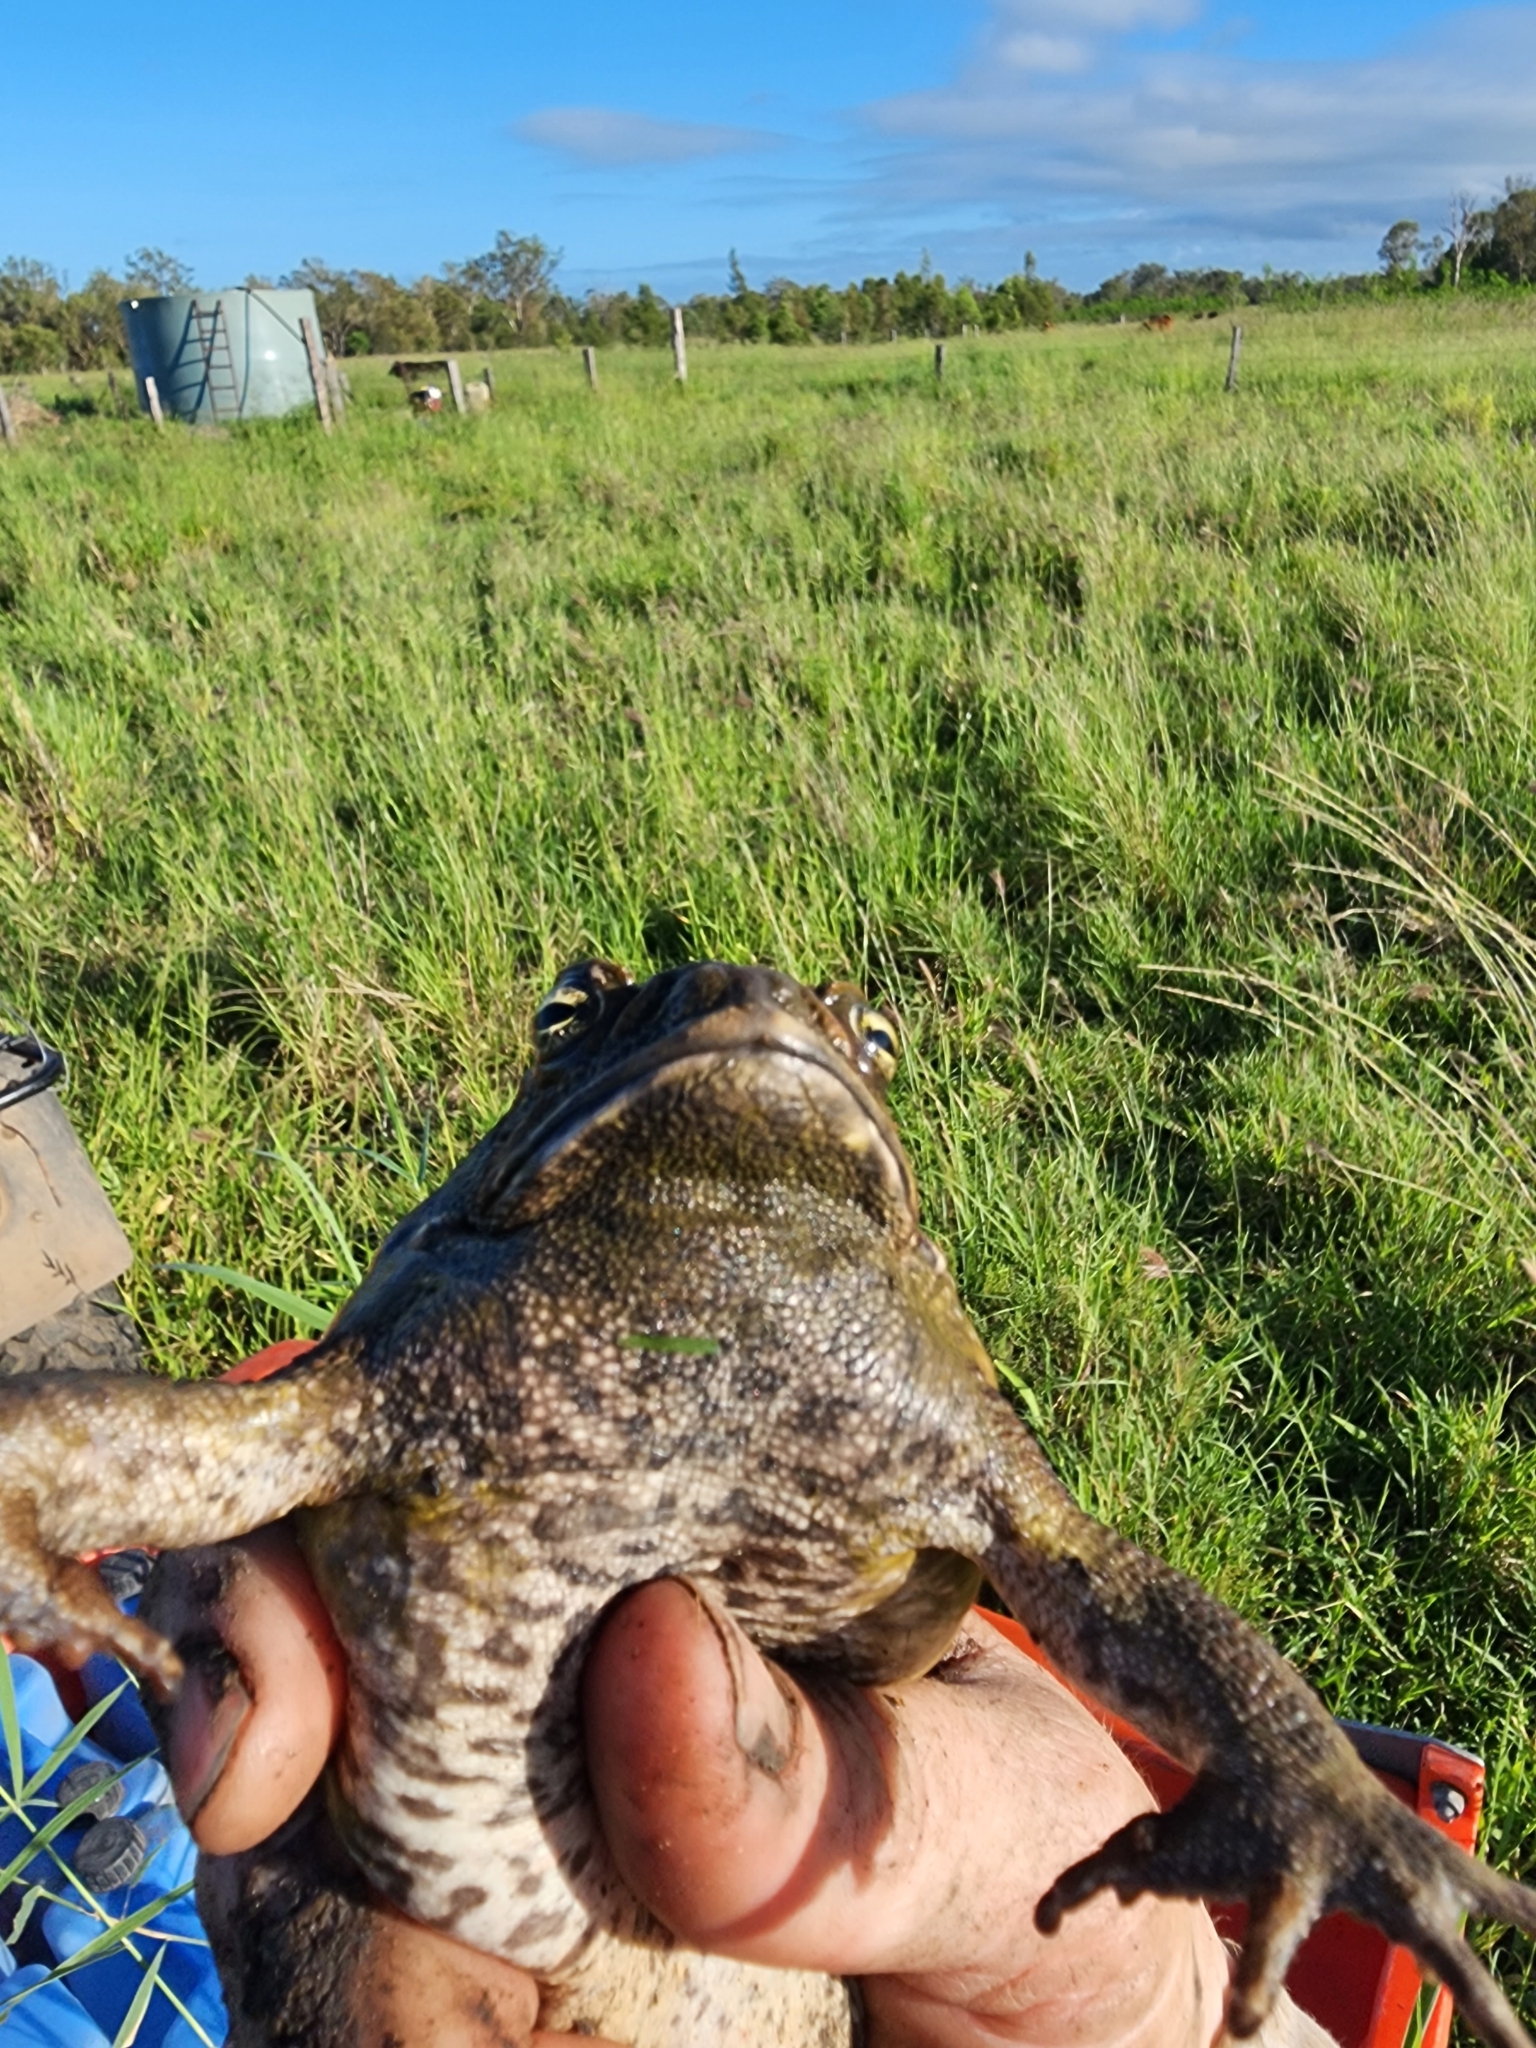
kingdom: Animalia
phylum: Chordata
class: Amphibia
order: Anura
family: Bufonidae
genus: Rhinella
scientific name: Rhinella marina
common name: Cane toad
